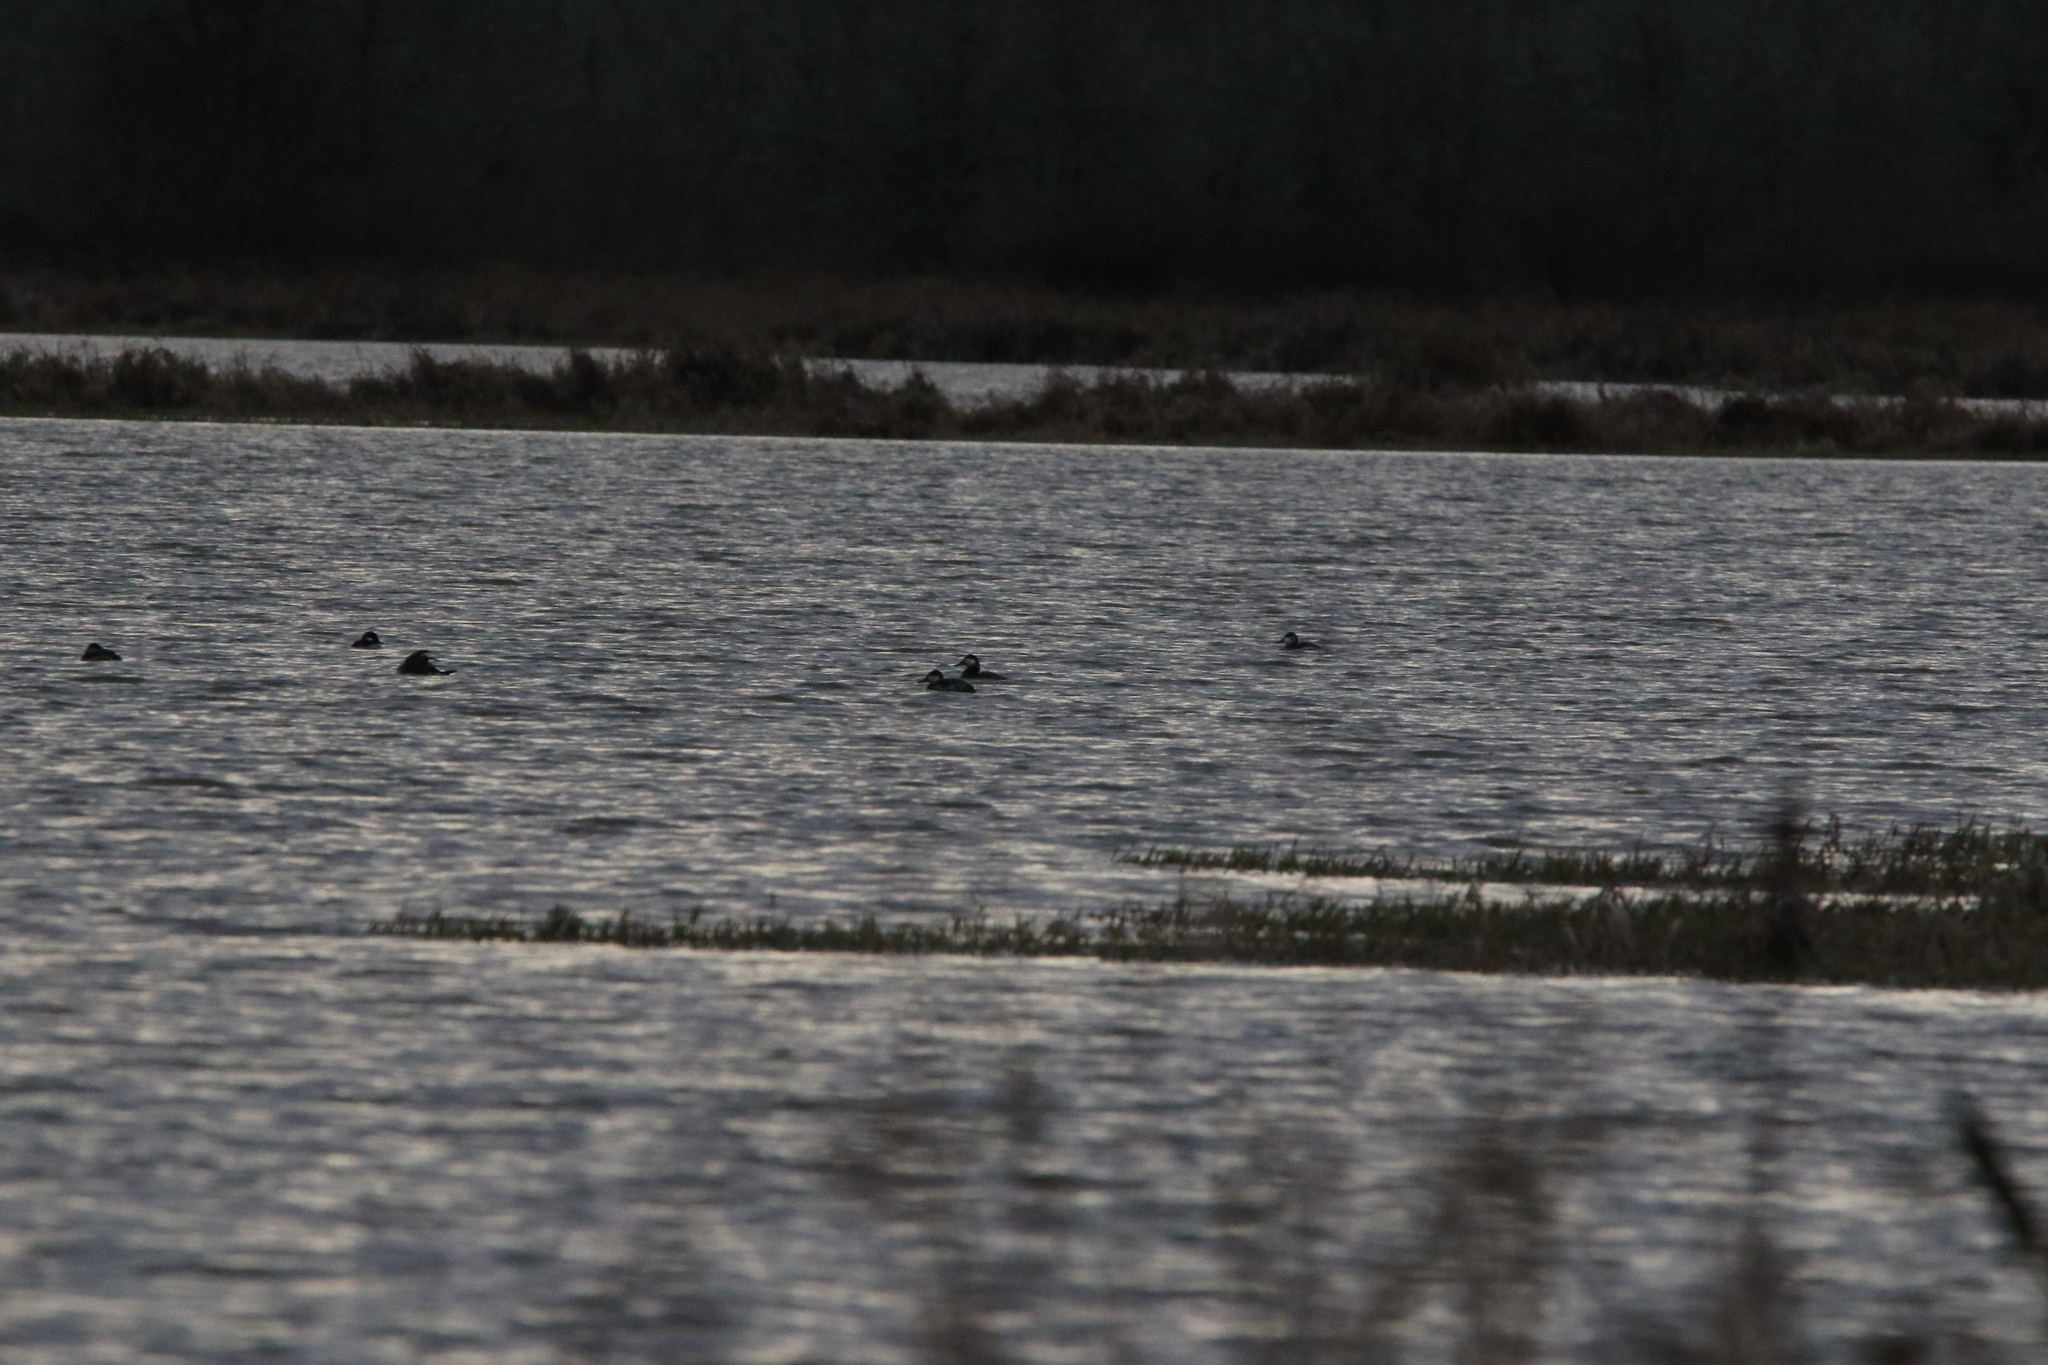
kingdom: Animalia
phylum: Chordata
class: Aves
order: Anseriformes
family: Anatidae
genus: Oxyura
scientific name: Oxyura jamaicensis
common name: Ruddy duck
